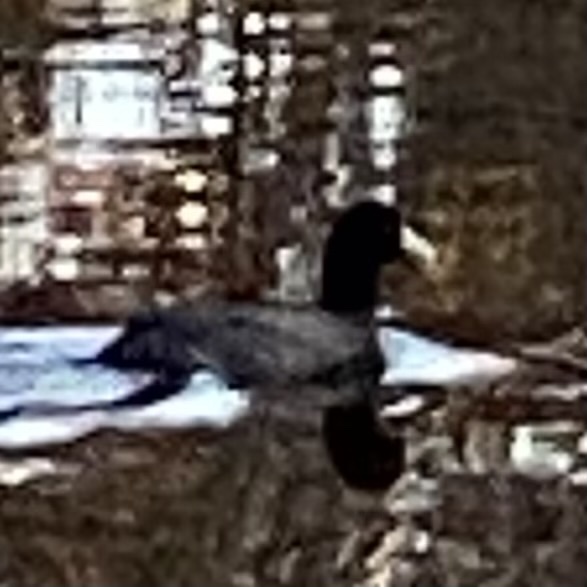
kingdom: Animalia
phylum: Chordata
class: Aves
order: Gruiformes
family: Rallidae
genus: Fulica
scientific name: Fulica atra
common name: Eurasian coot
